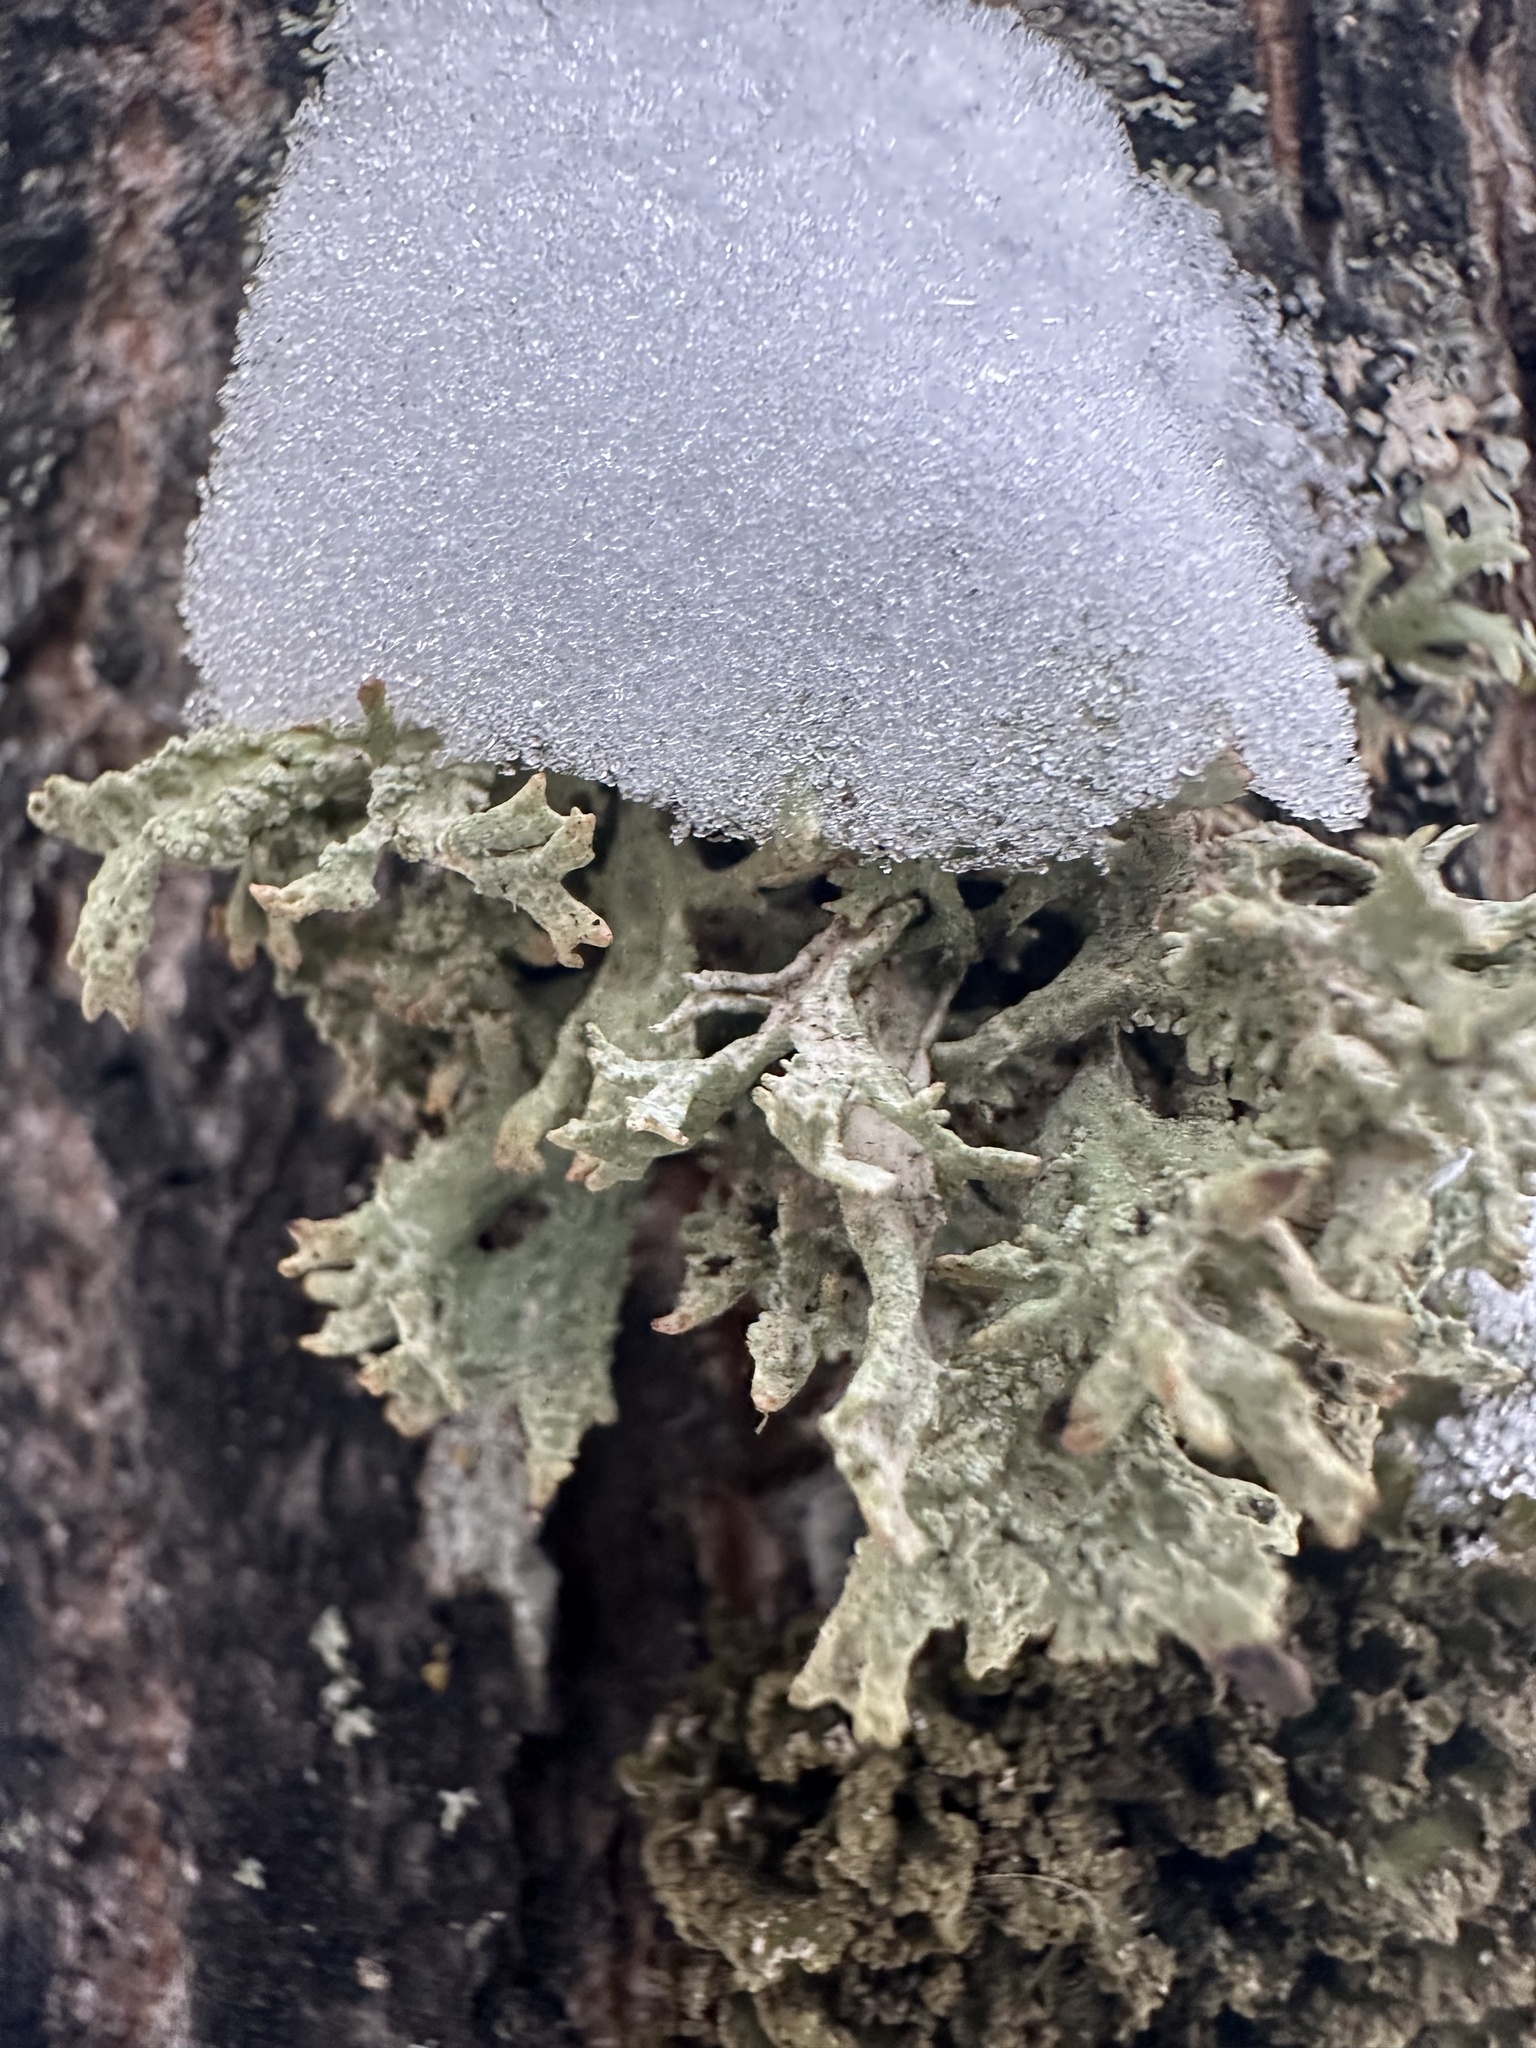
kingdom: Fungi
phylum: Ascomycota
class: Lecanoromycetes
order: Lecanorales
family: Parmeliaceae
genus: Evernia
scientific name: Evernia prunastri
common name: Oak moss
